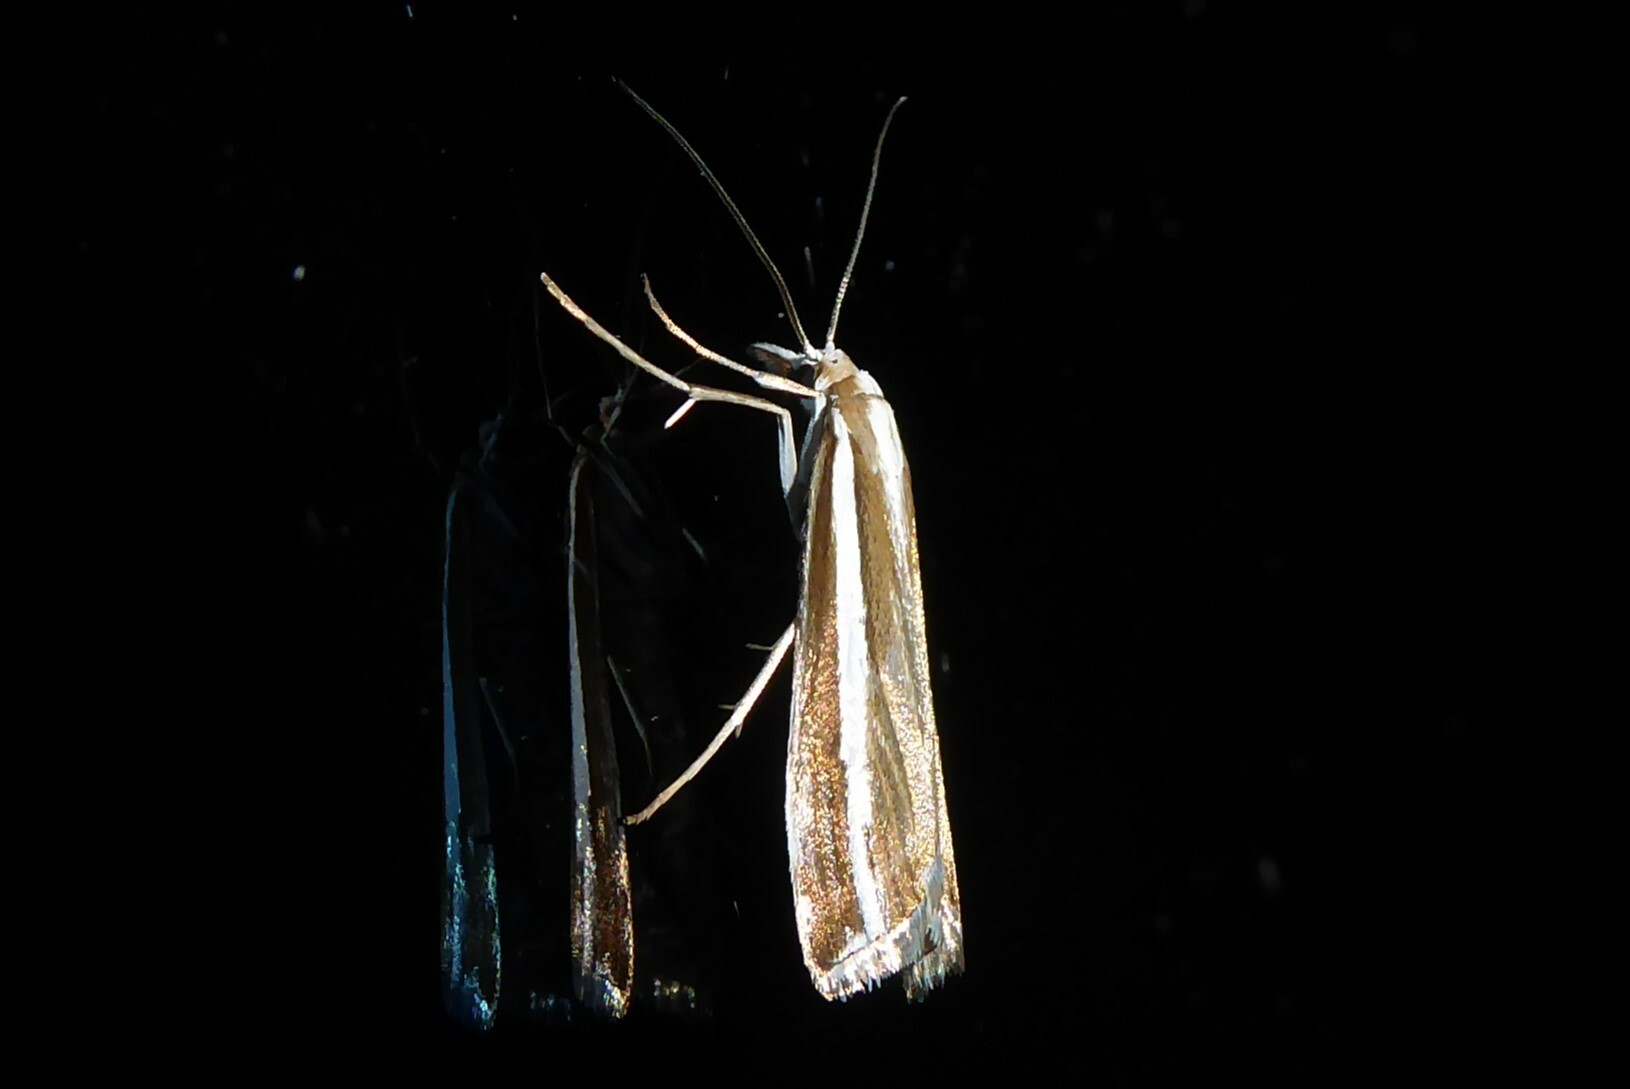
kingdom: Animalia
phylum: Arthropoda
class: Insecta
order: Lepidoptera
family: Crambidae
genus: Orocrambus
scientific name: Orocrambus vittellus
